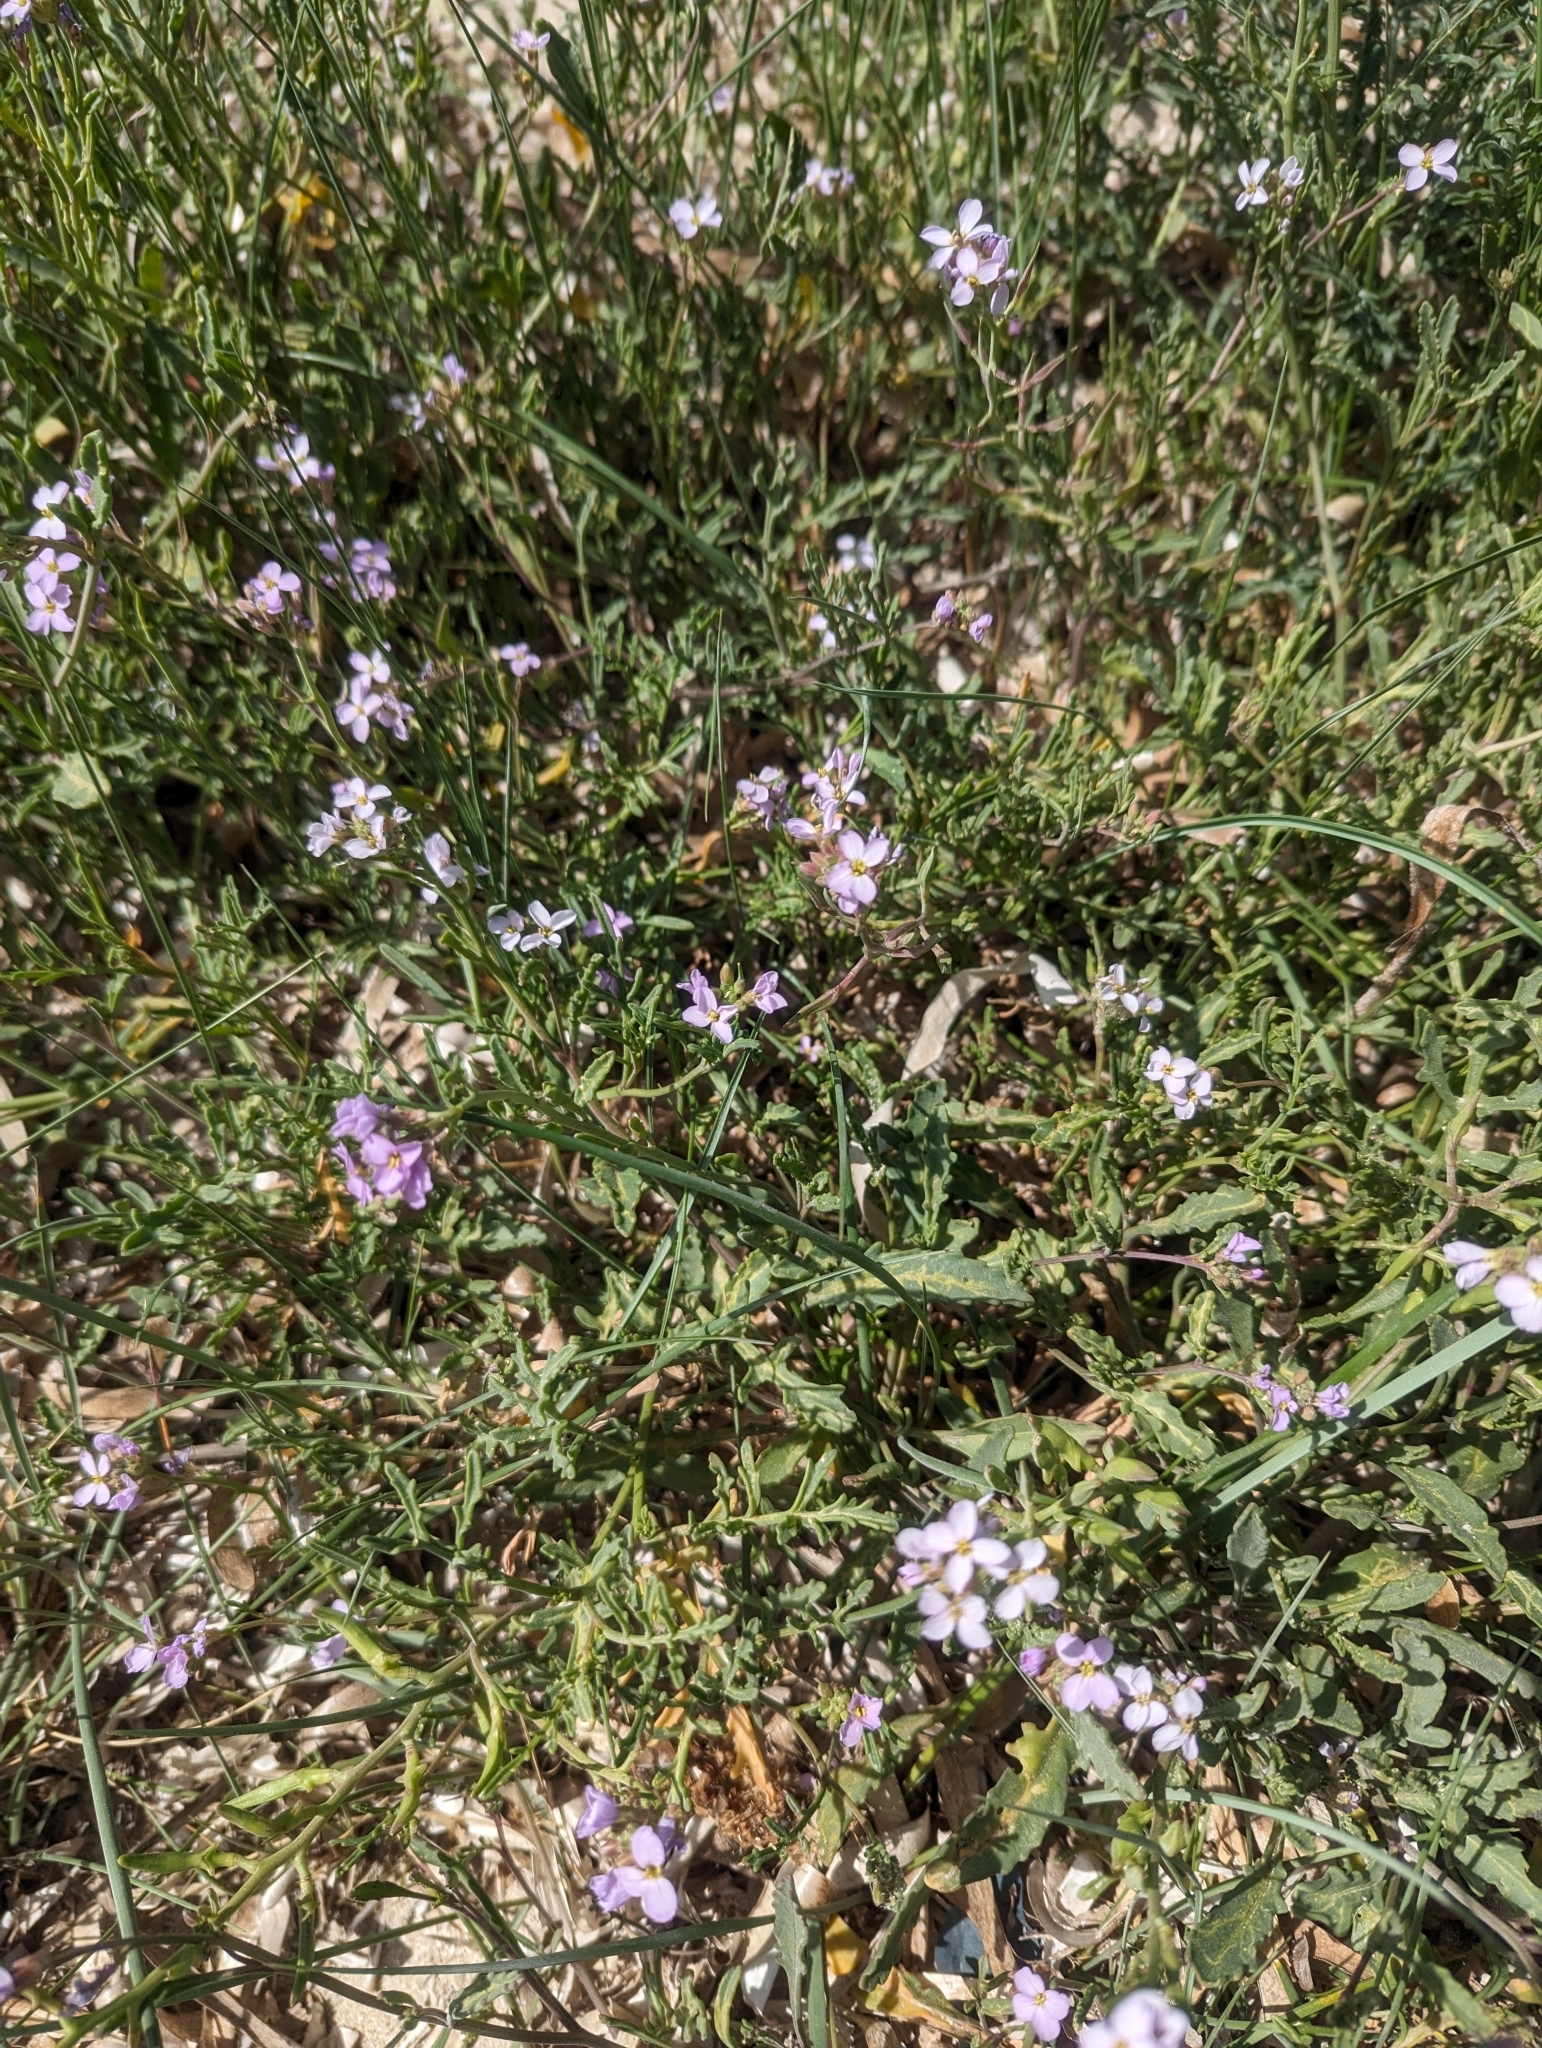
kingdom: Plantae
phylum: Tracheophyta
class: Magnoliopsida
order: Brassicales
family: Brassicaceae
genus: Cakile
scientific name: Cakile maritima
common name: Sea rocket
